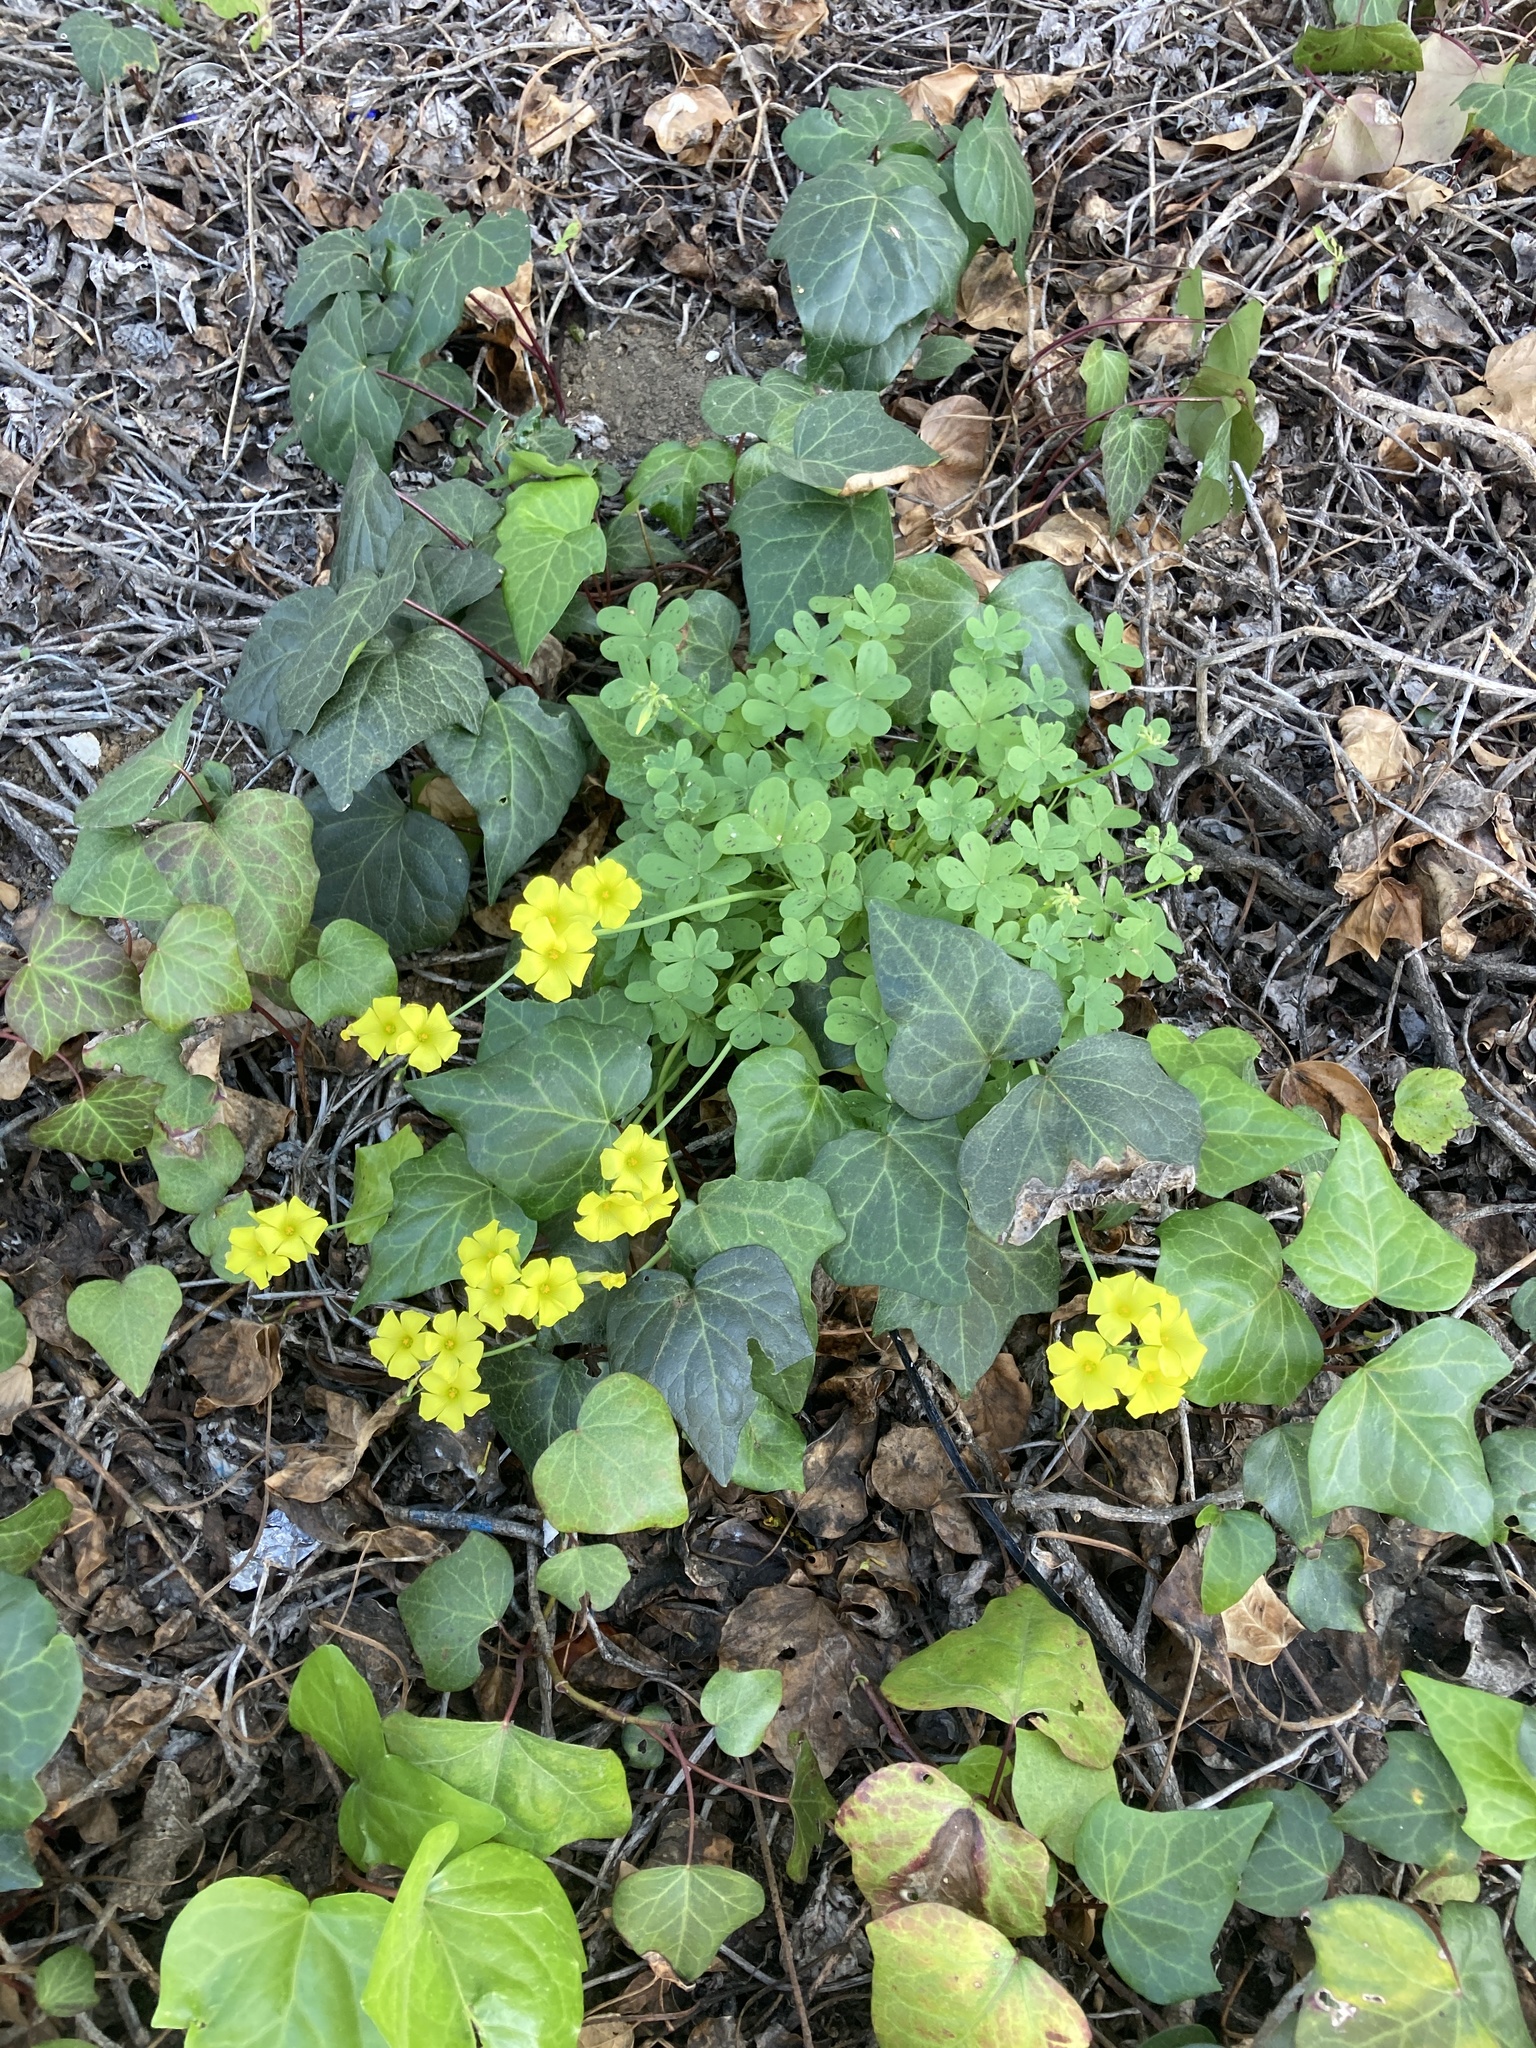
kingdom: Plantae
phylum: Tracheophyta
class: Magnoliopsida
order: Oxalidales
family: Oxalidaceae
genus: Oxalis
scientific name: Oxalis pes-caprae
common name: Bermuda-buttercup
